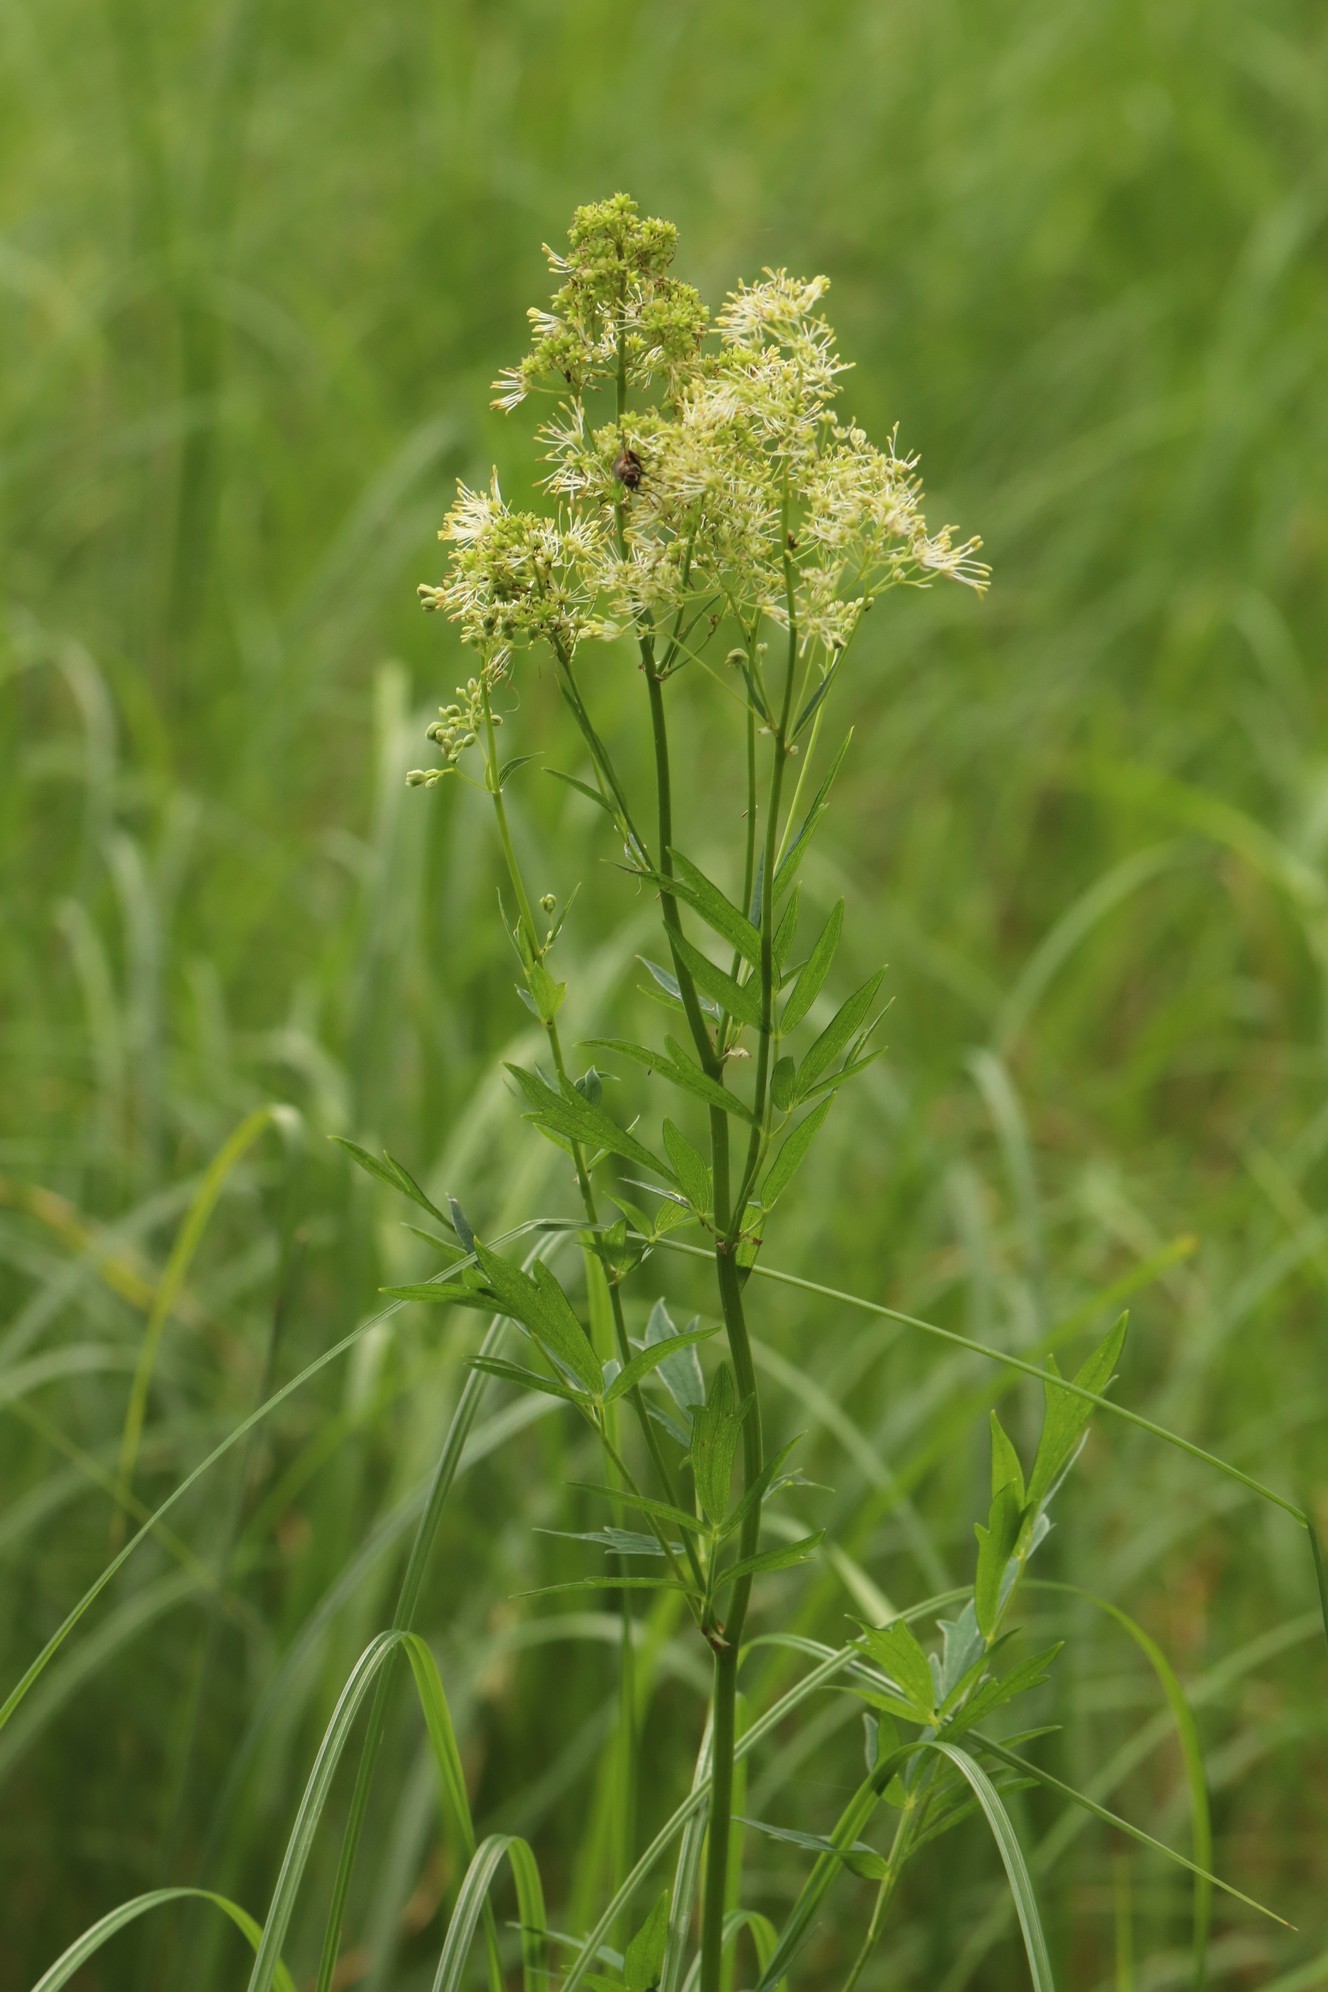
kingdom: Plantae
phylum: Tracheophyta
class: Magnoliopsida
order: Ranunculales
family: Ranunculaceae
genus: Thalictrum
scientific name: Thalictrum flavum
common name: Common meadow-rue
